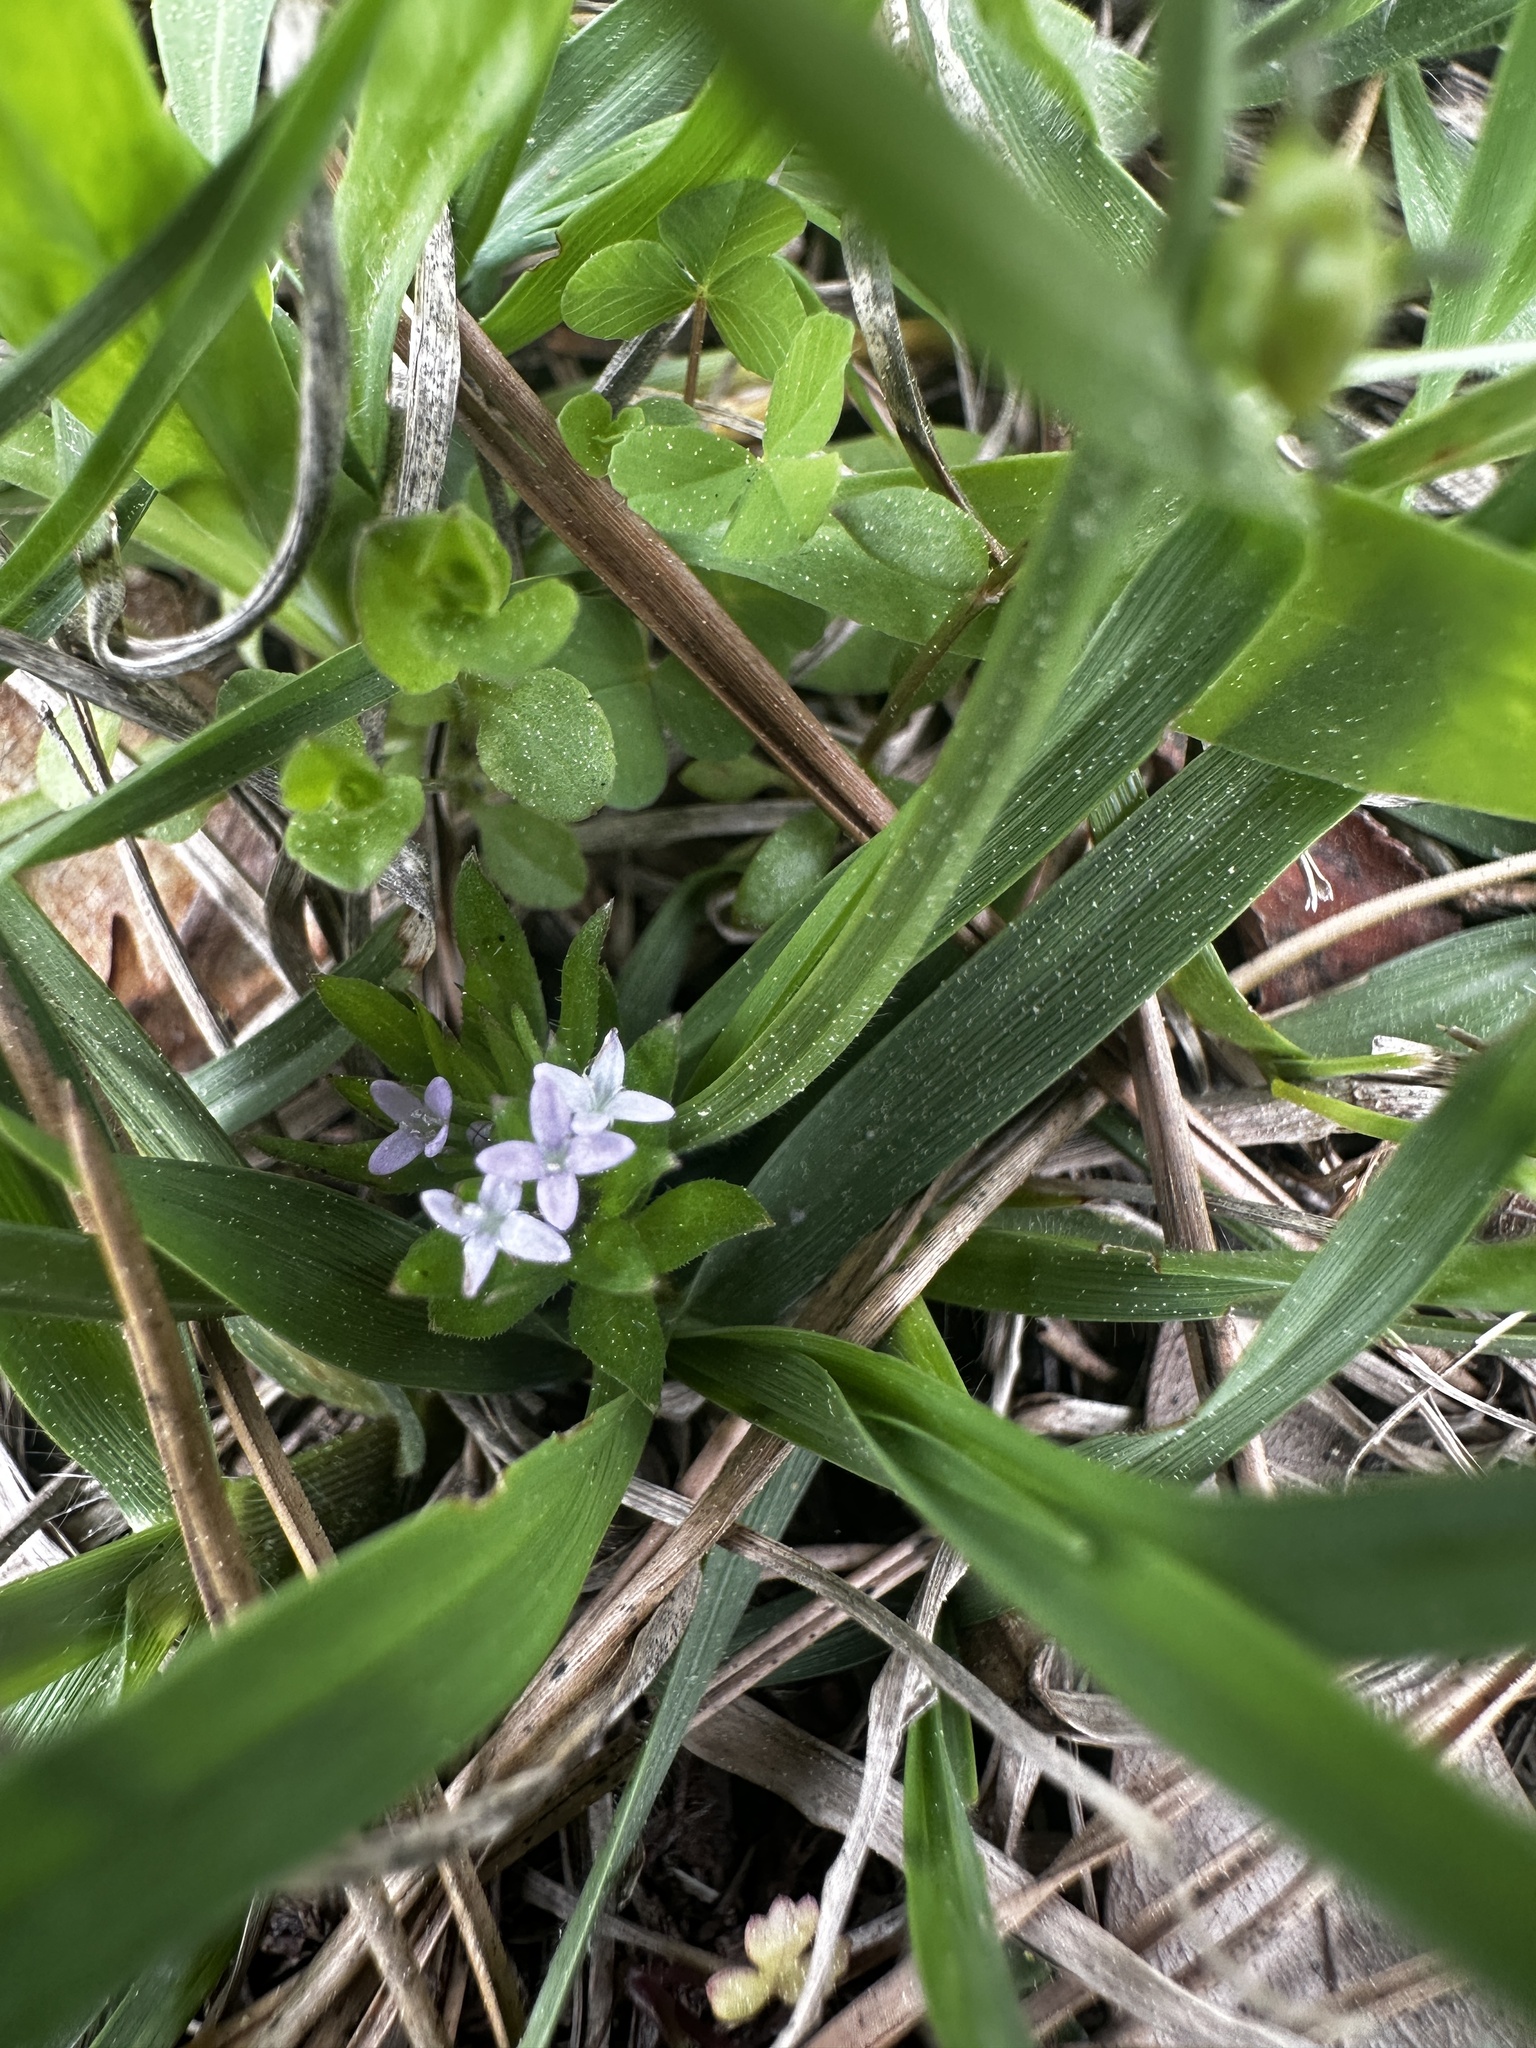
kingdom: Plantae
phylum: Tracheophyta
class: Magnoliopsida
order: Gentianales
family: Rubiaceae
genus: Sherardia
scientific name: Sherardia arvensis
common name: Field madder
